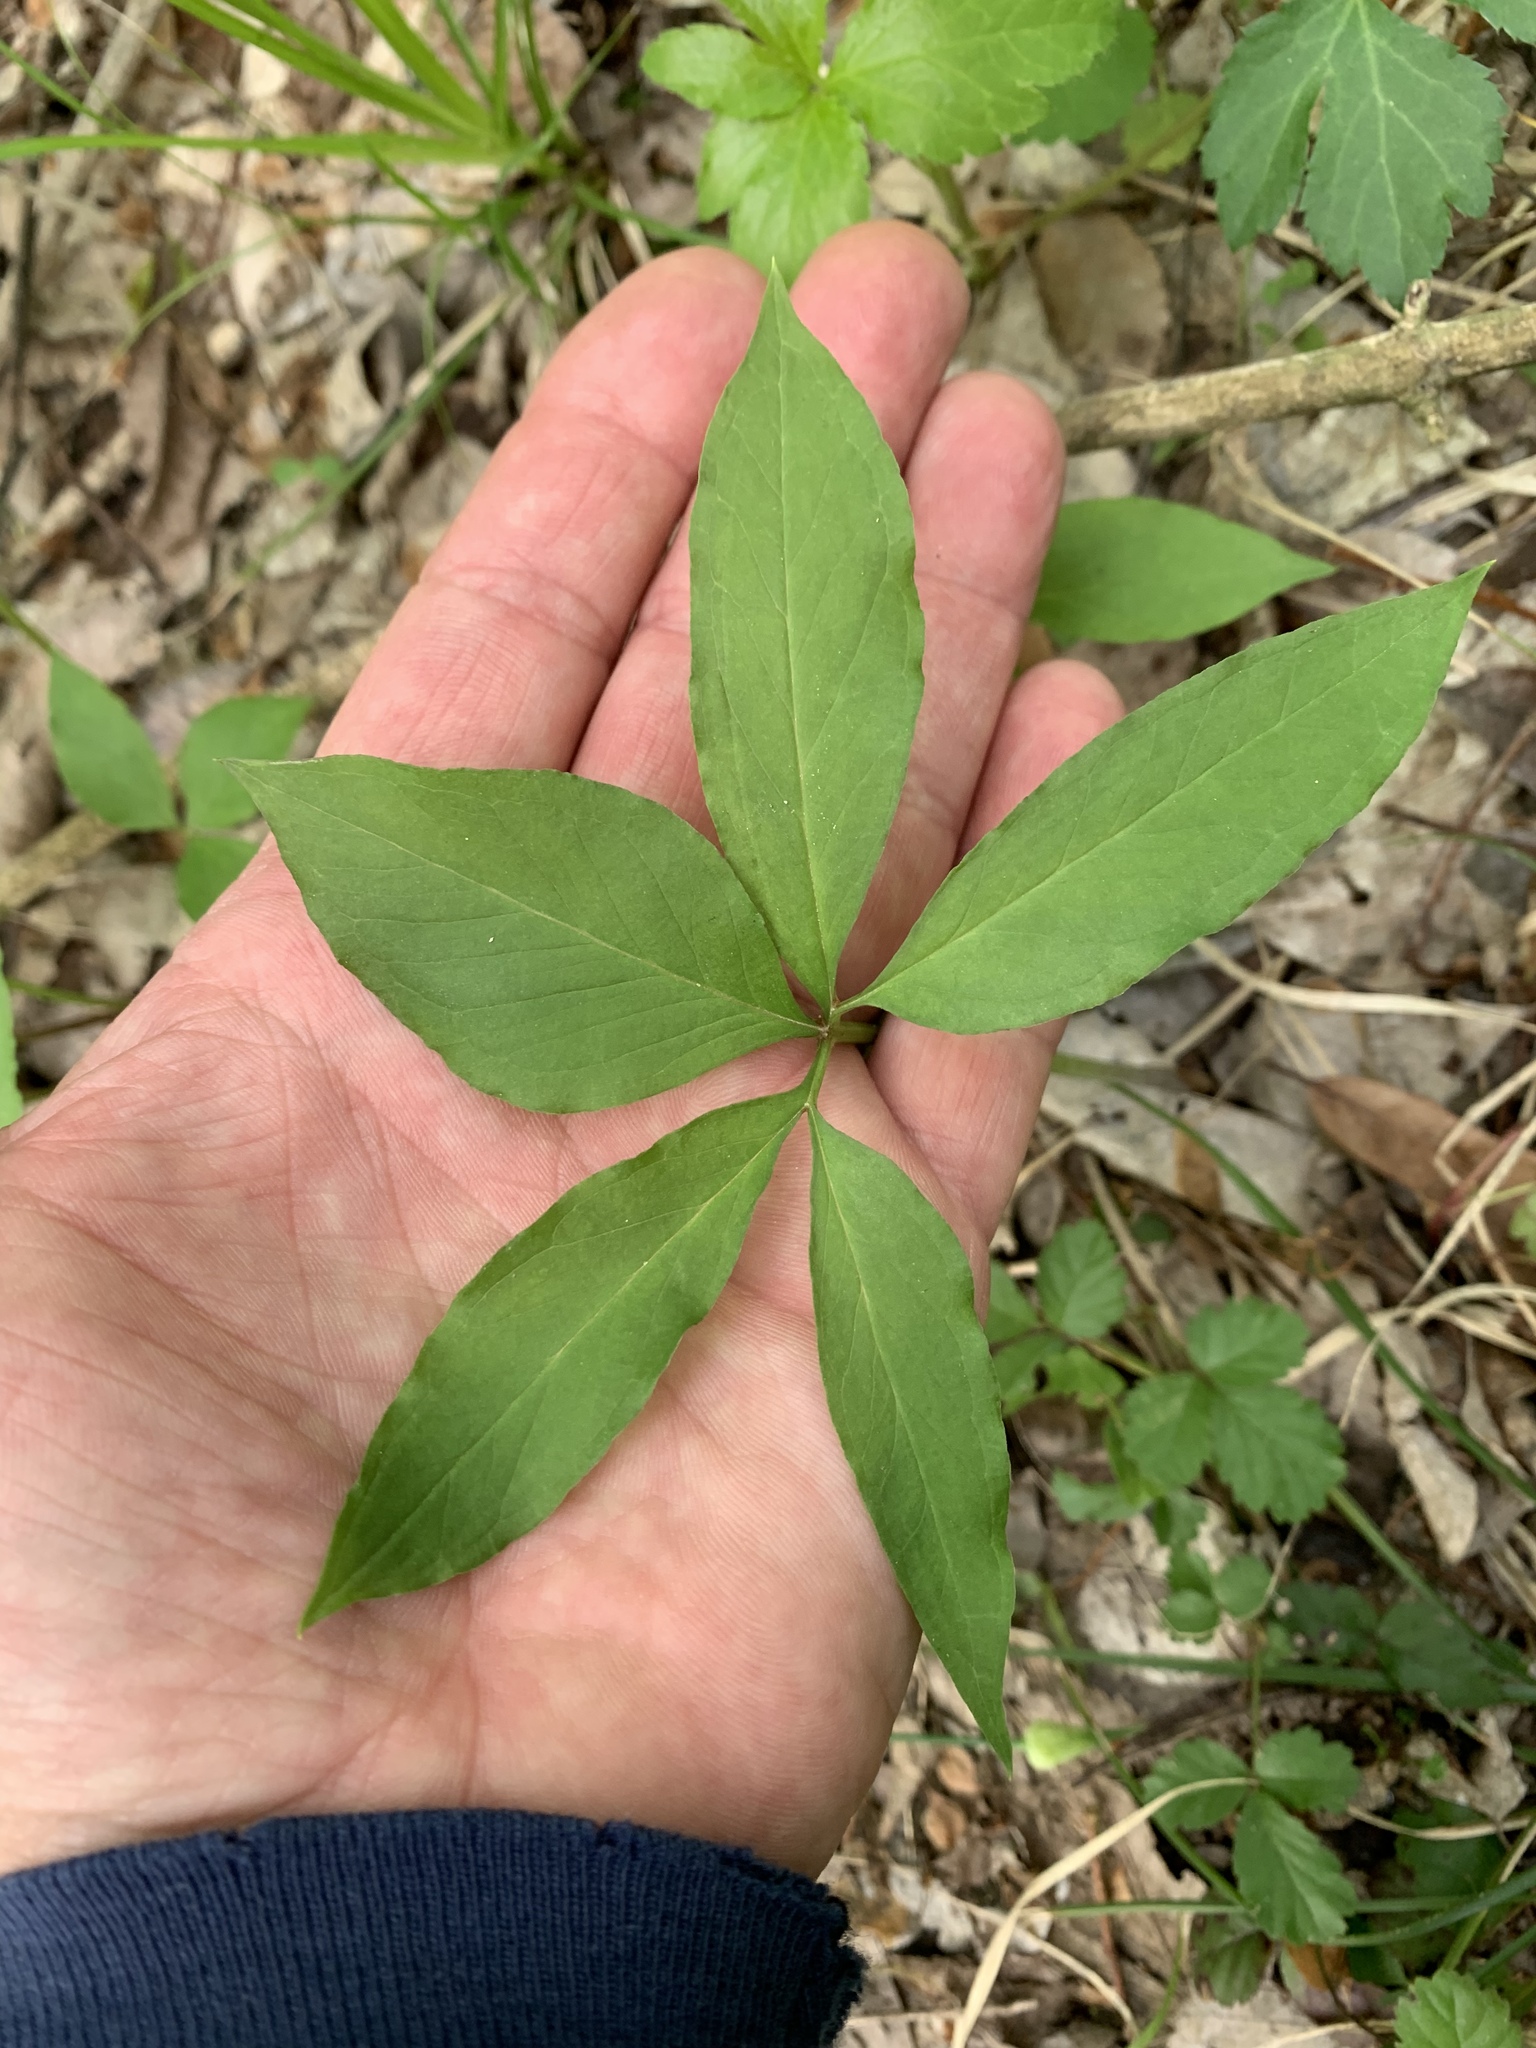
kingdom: Plantae
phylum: Tracheophyta
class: Liliopsida
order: Alismatales
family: Araceae
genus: Arisaema
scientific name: Arisaema dracontium
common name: Dragon-arum
